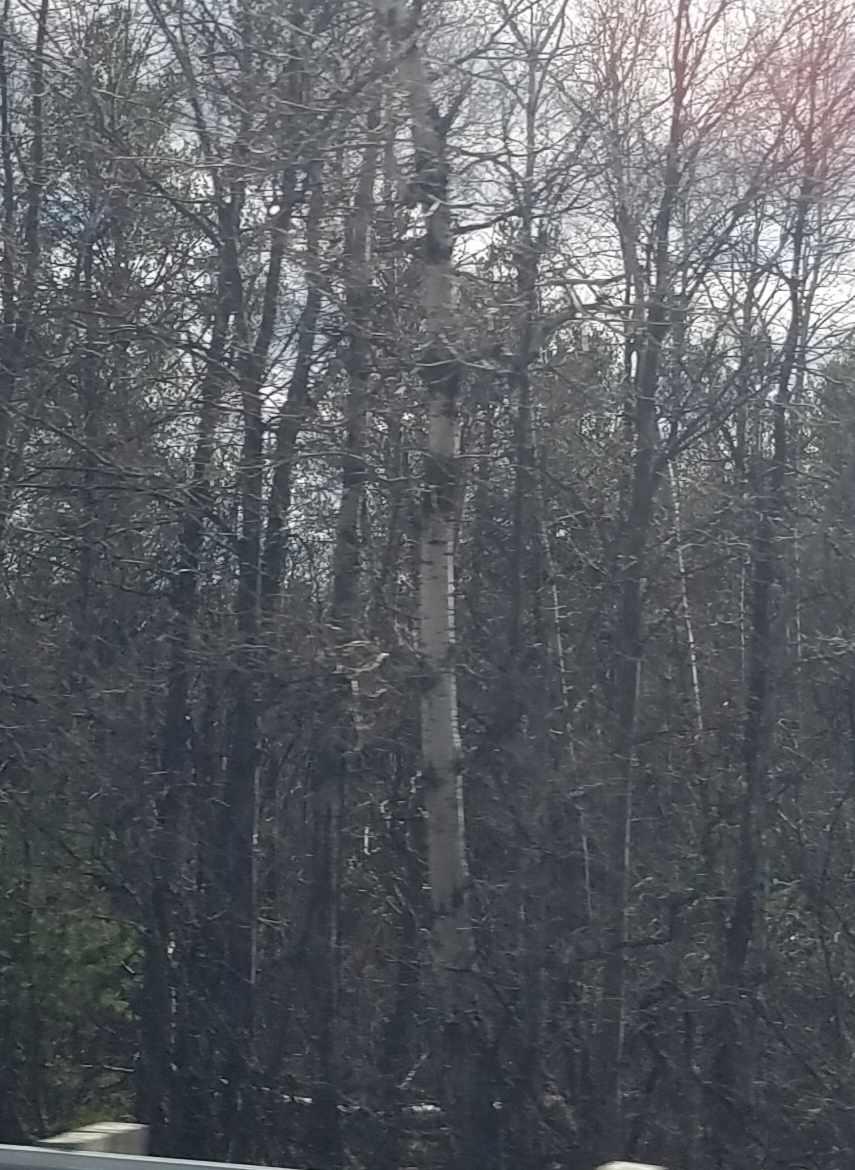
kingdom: Plantae
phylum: Tracheophyta
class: Magnoliopsida
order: Malpighiales
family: Salicaceae
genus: Populus
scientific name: Populus tremuloides
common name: Quaking aspen
